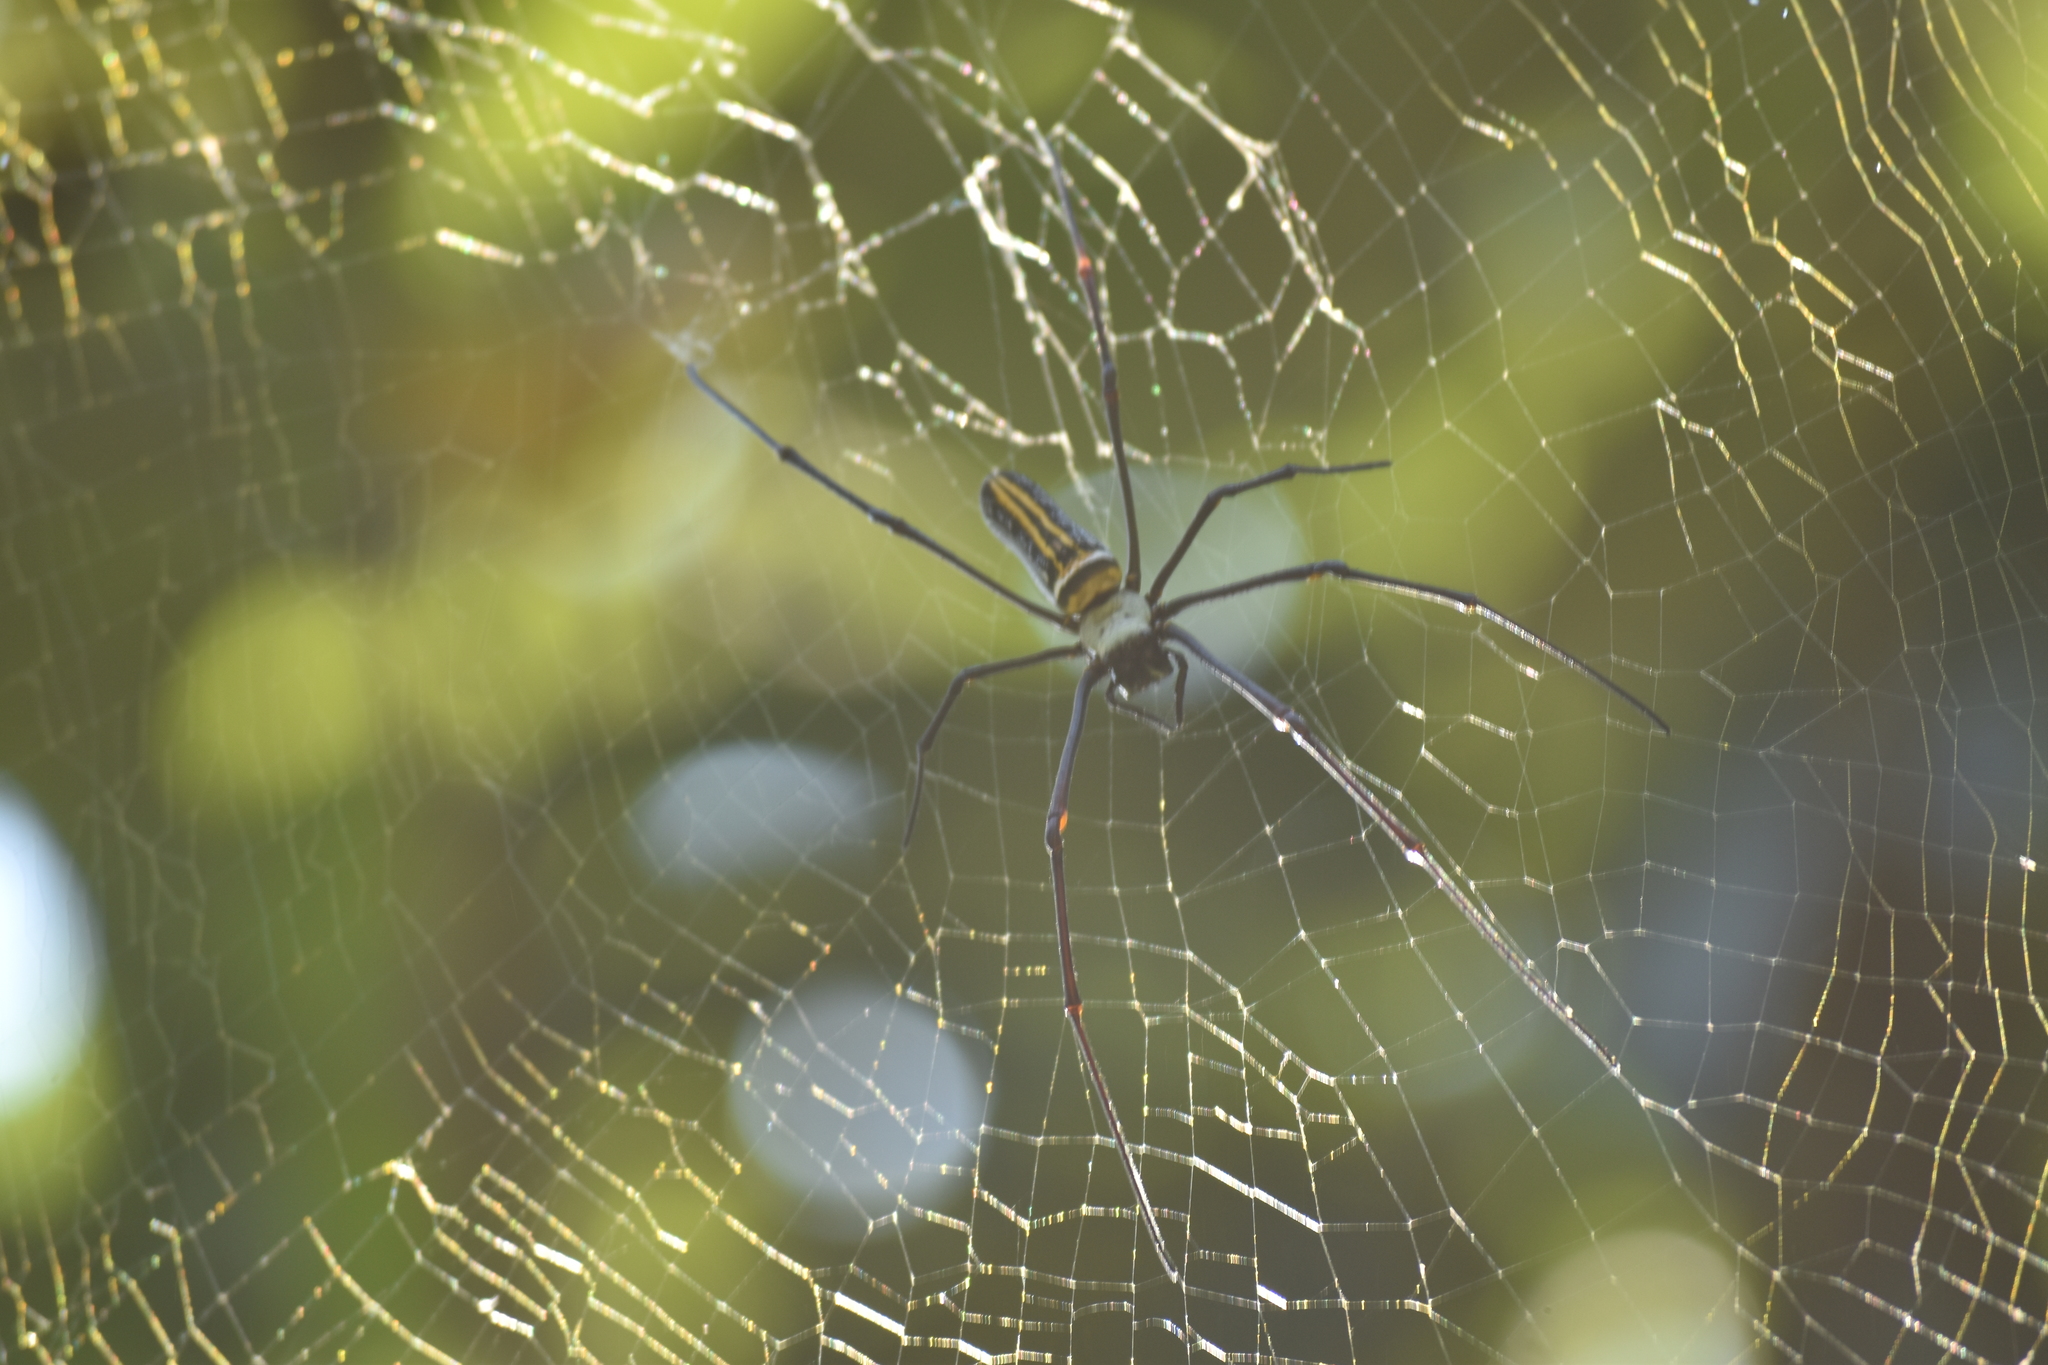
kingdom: Animalia
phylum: Arthropoda
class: Arachnida
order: Araneae
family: Araneidae
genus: Nephila
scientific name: Nephila pilipes
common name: Giant golden orb weaver
